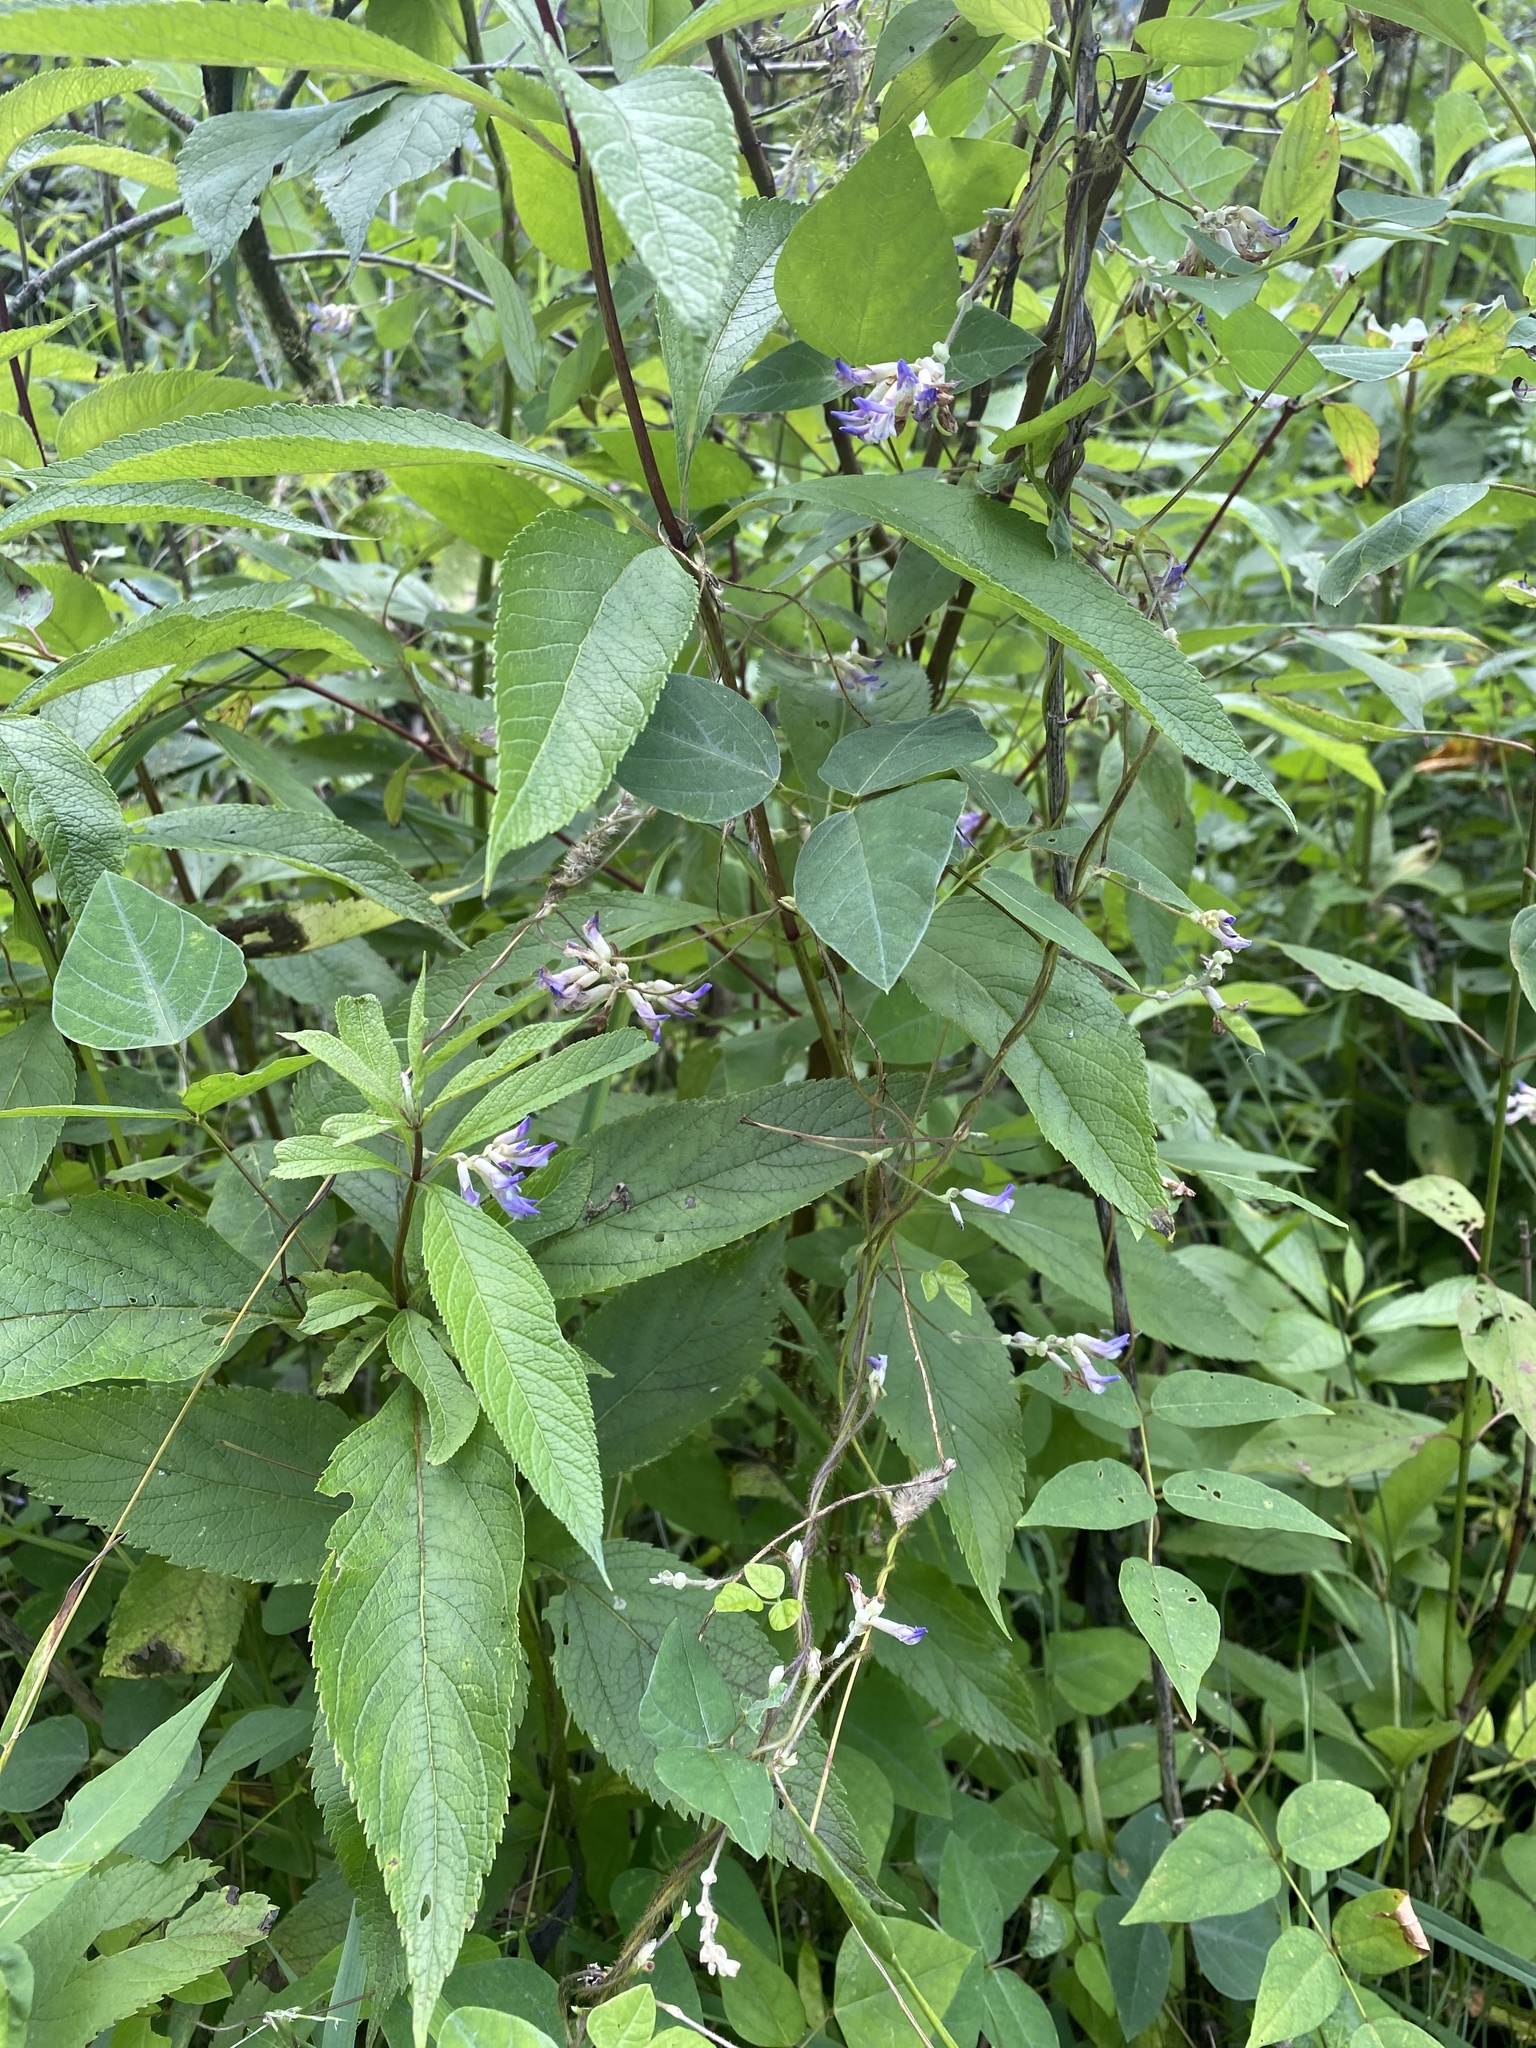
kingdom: Plantae
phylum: Tracheophyta
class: Magnoliopsida
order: Fabales
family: Fabaceae
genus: Amphicarpaea
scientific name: Amphicarpaea bracteata
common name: American hog peanut
